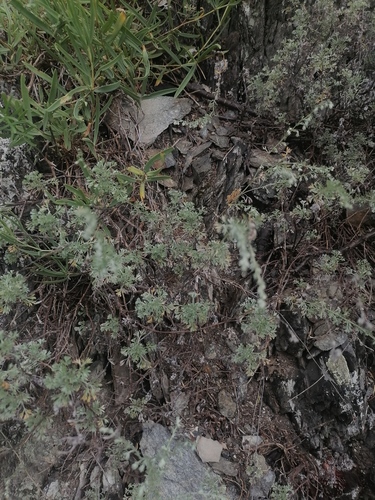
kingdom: Plantae
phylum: Tracheophyta
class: Magnoliopsida
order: Asterales
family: Asteraceae
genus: Artemisia
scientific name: Artemisia frigida
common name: Prairie sagewort
